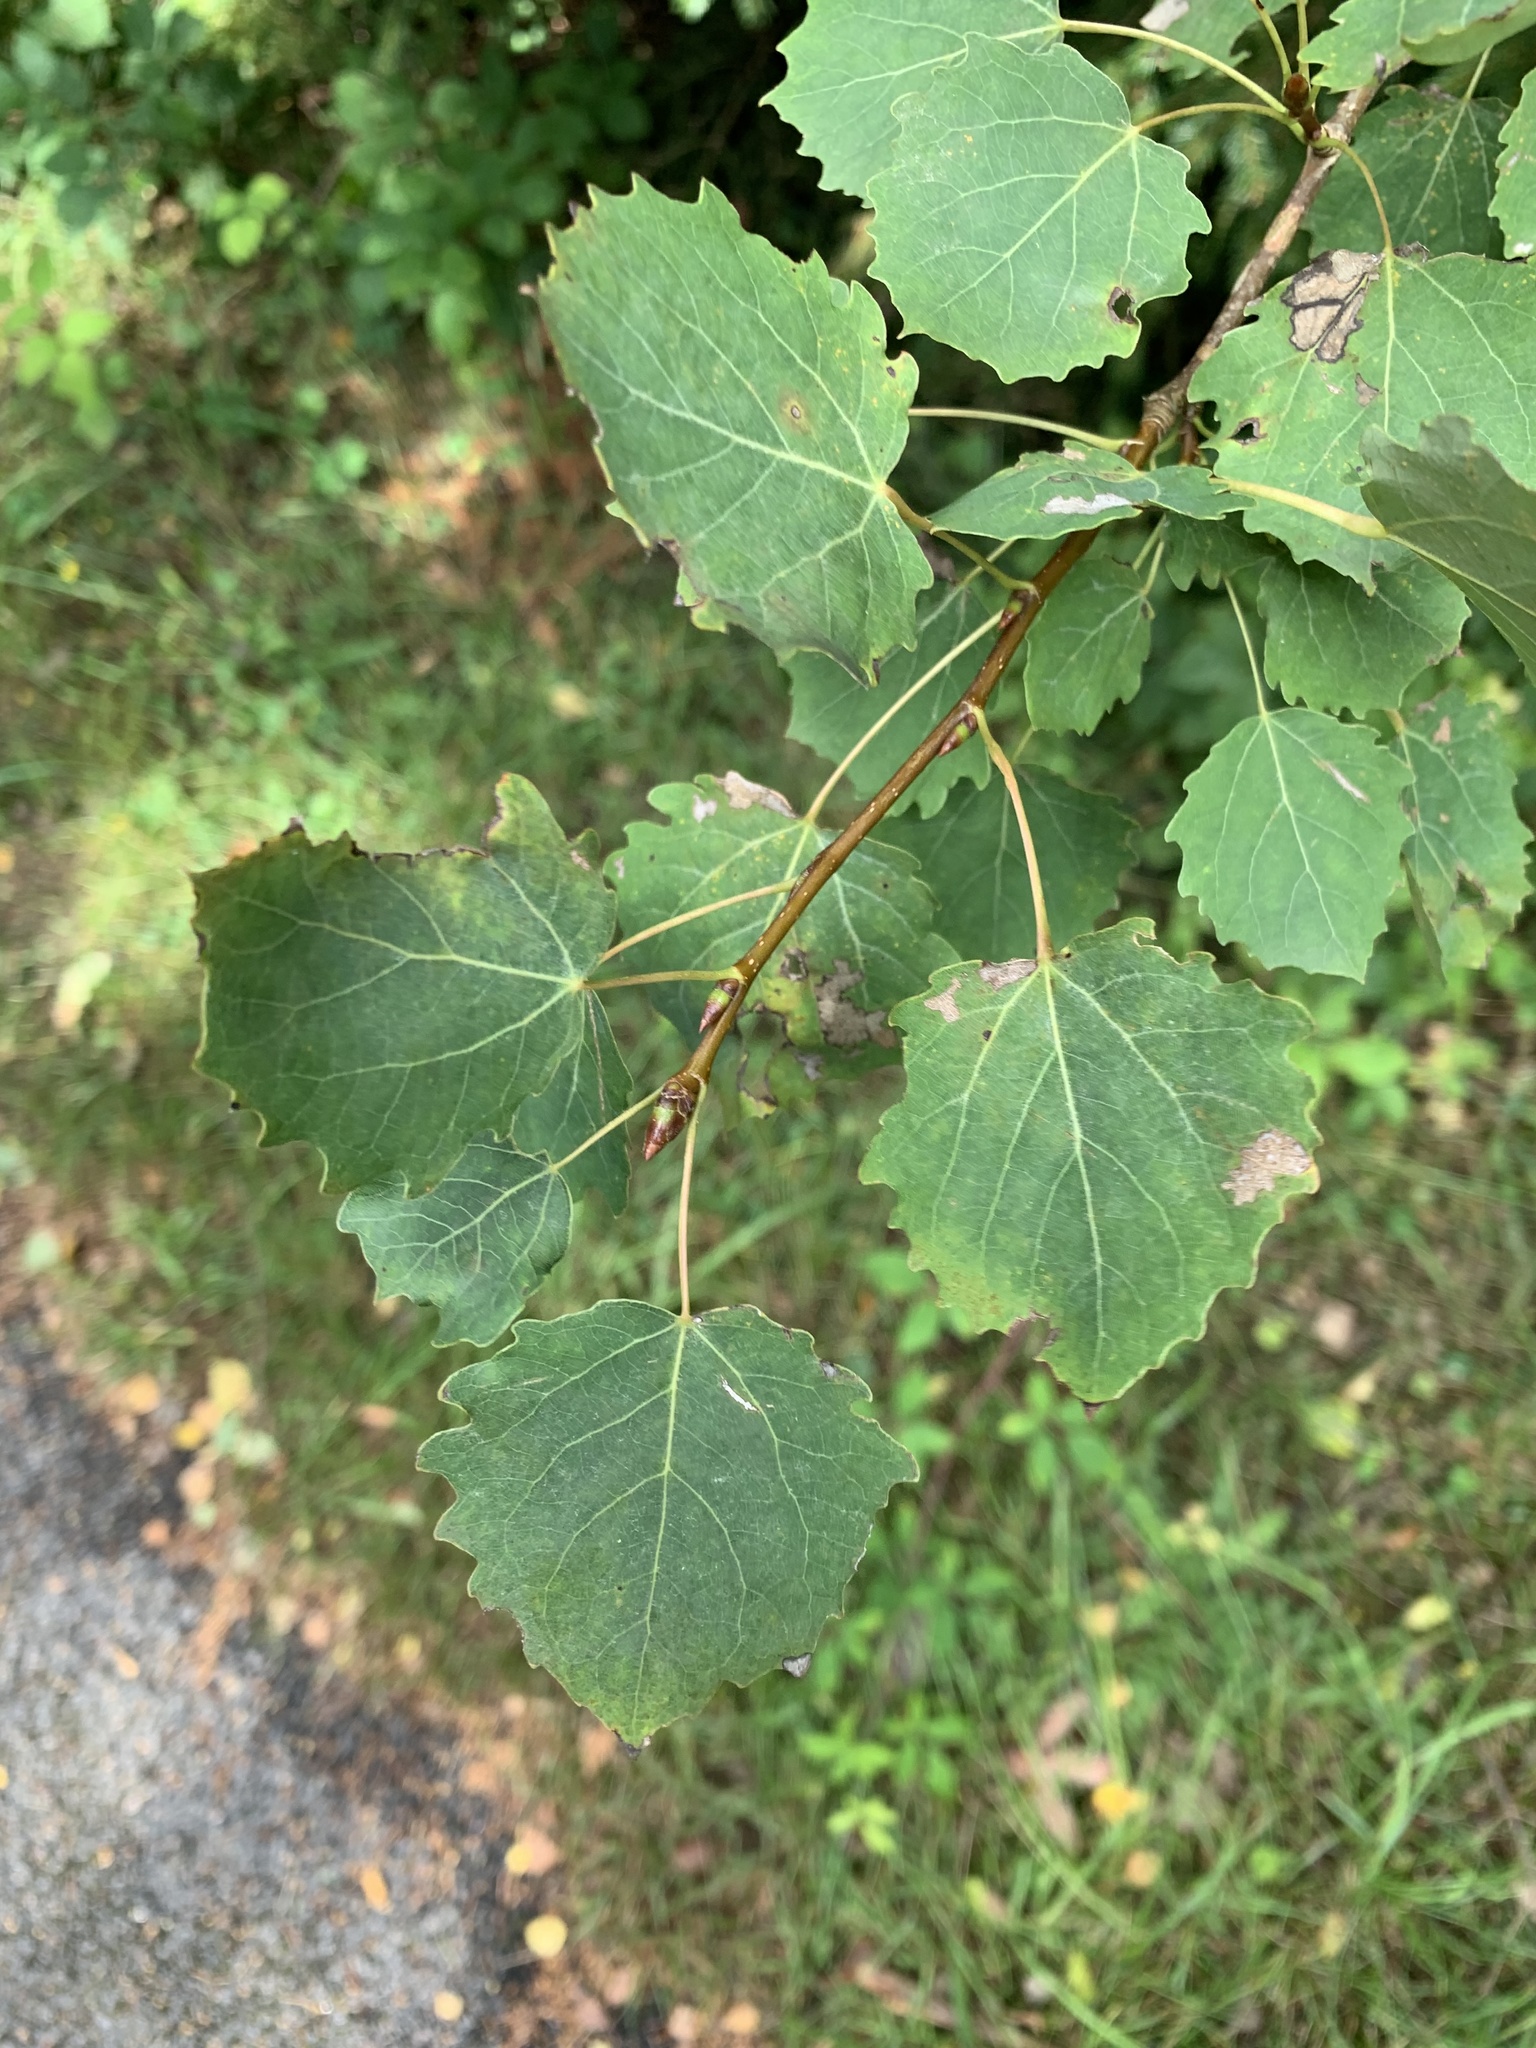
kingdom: Plantae
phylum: Tracheophyta
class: Magnoliopsida
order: Malpighiales
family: Salicaceae
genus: Populus
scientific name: Populus tremula
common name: European aspen
